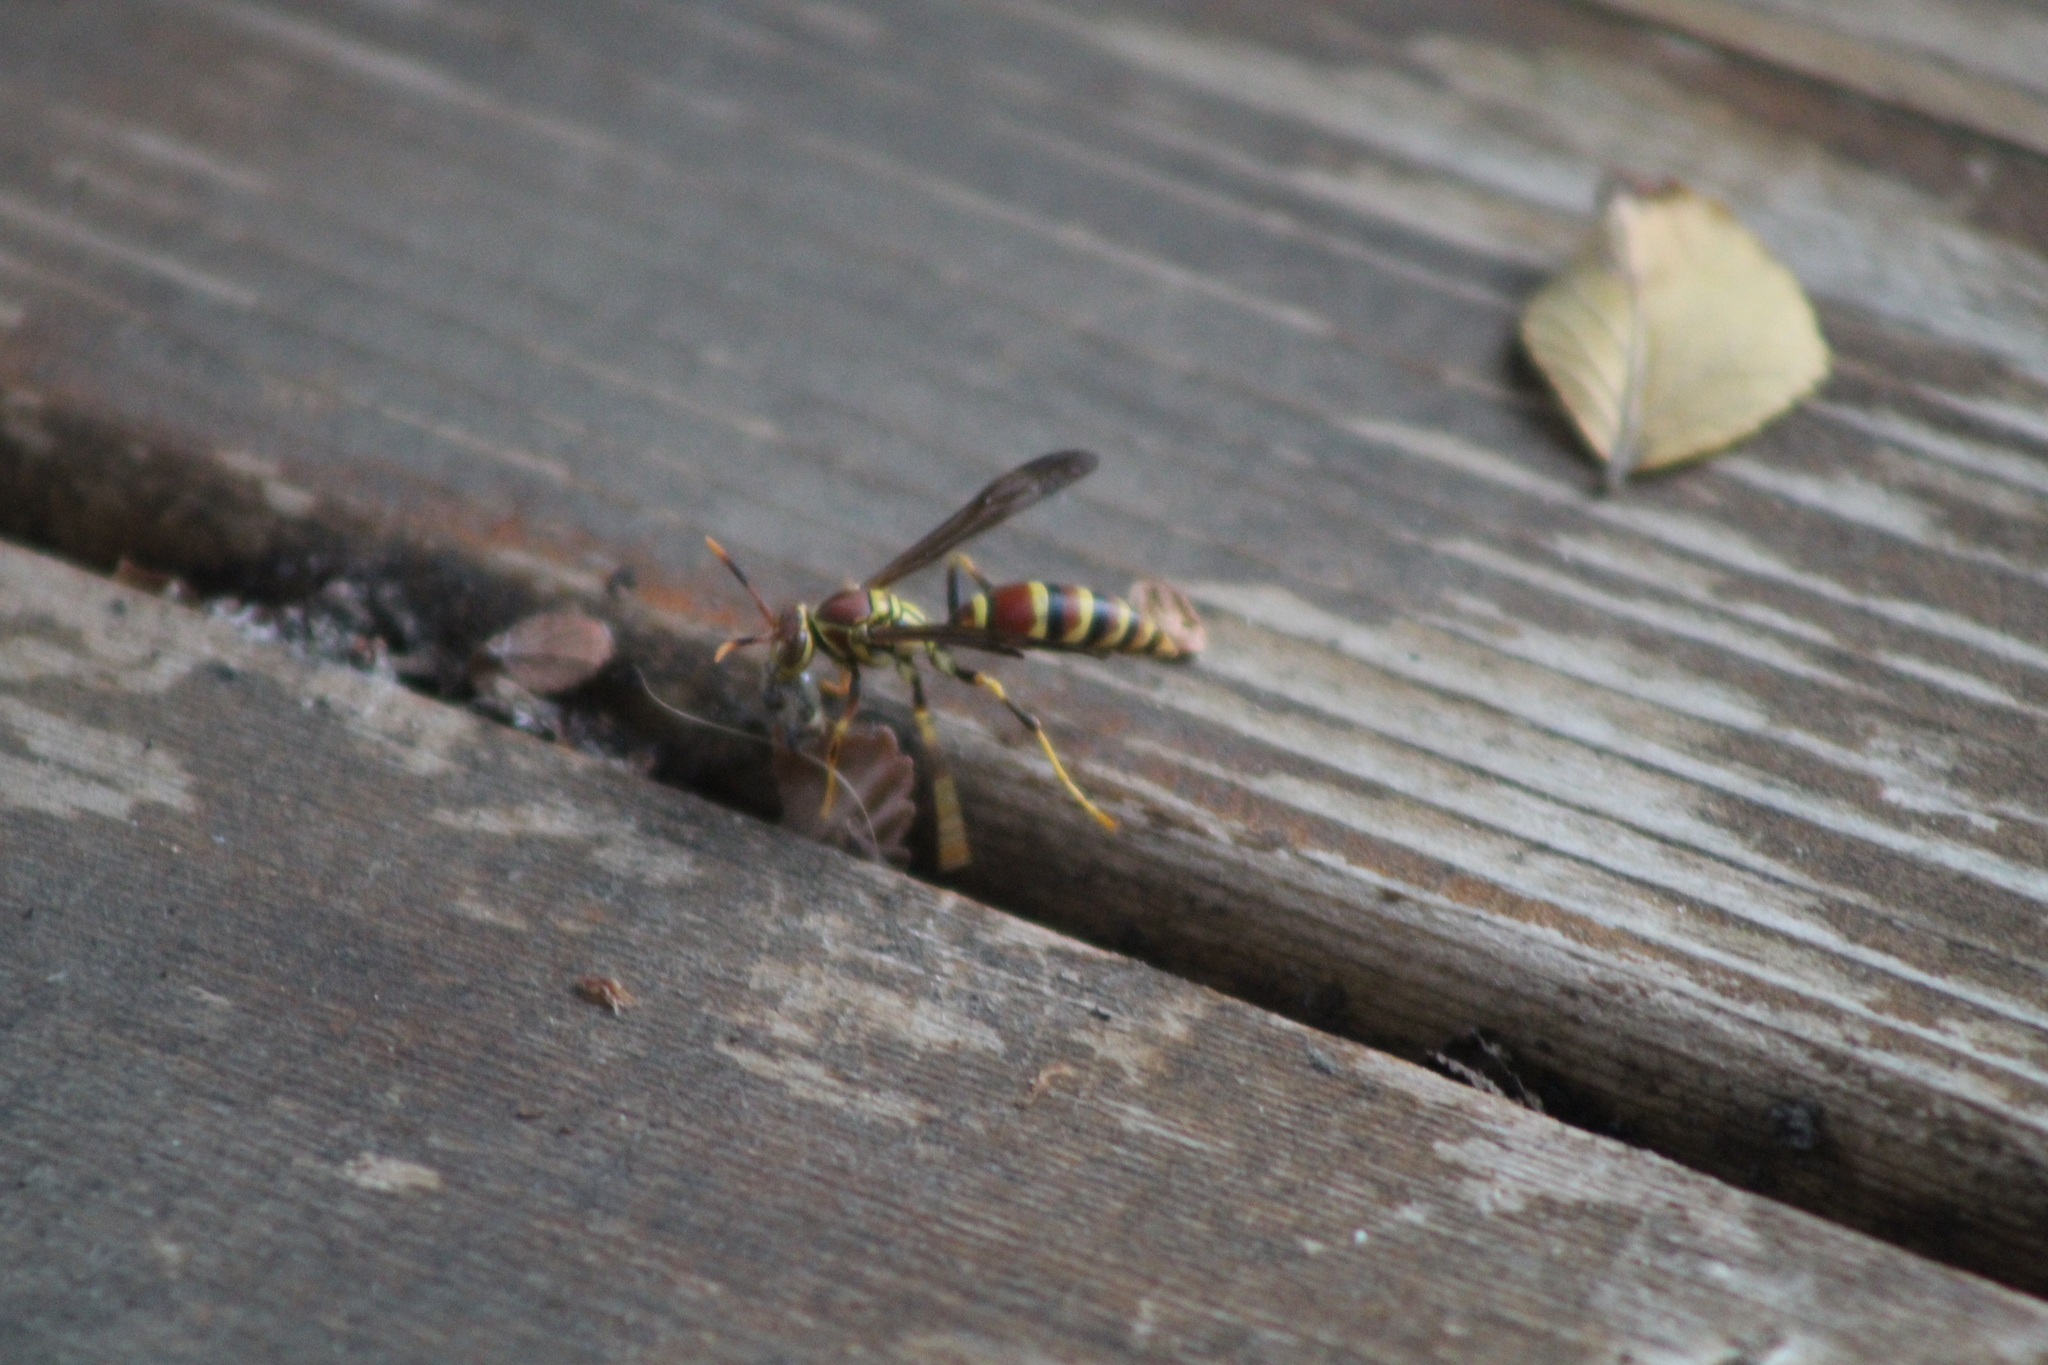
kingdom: Animalia
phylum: Arthropoda
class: Insecta
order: Hymenoptera
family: Eumenidae
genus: Polistes
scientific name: Polistes exclamans
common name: Paper wasp
